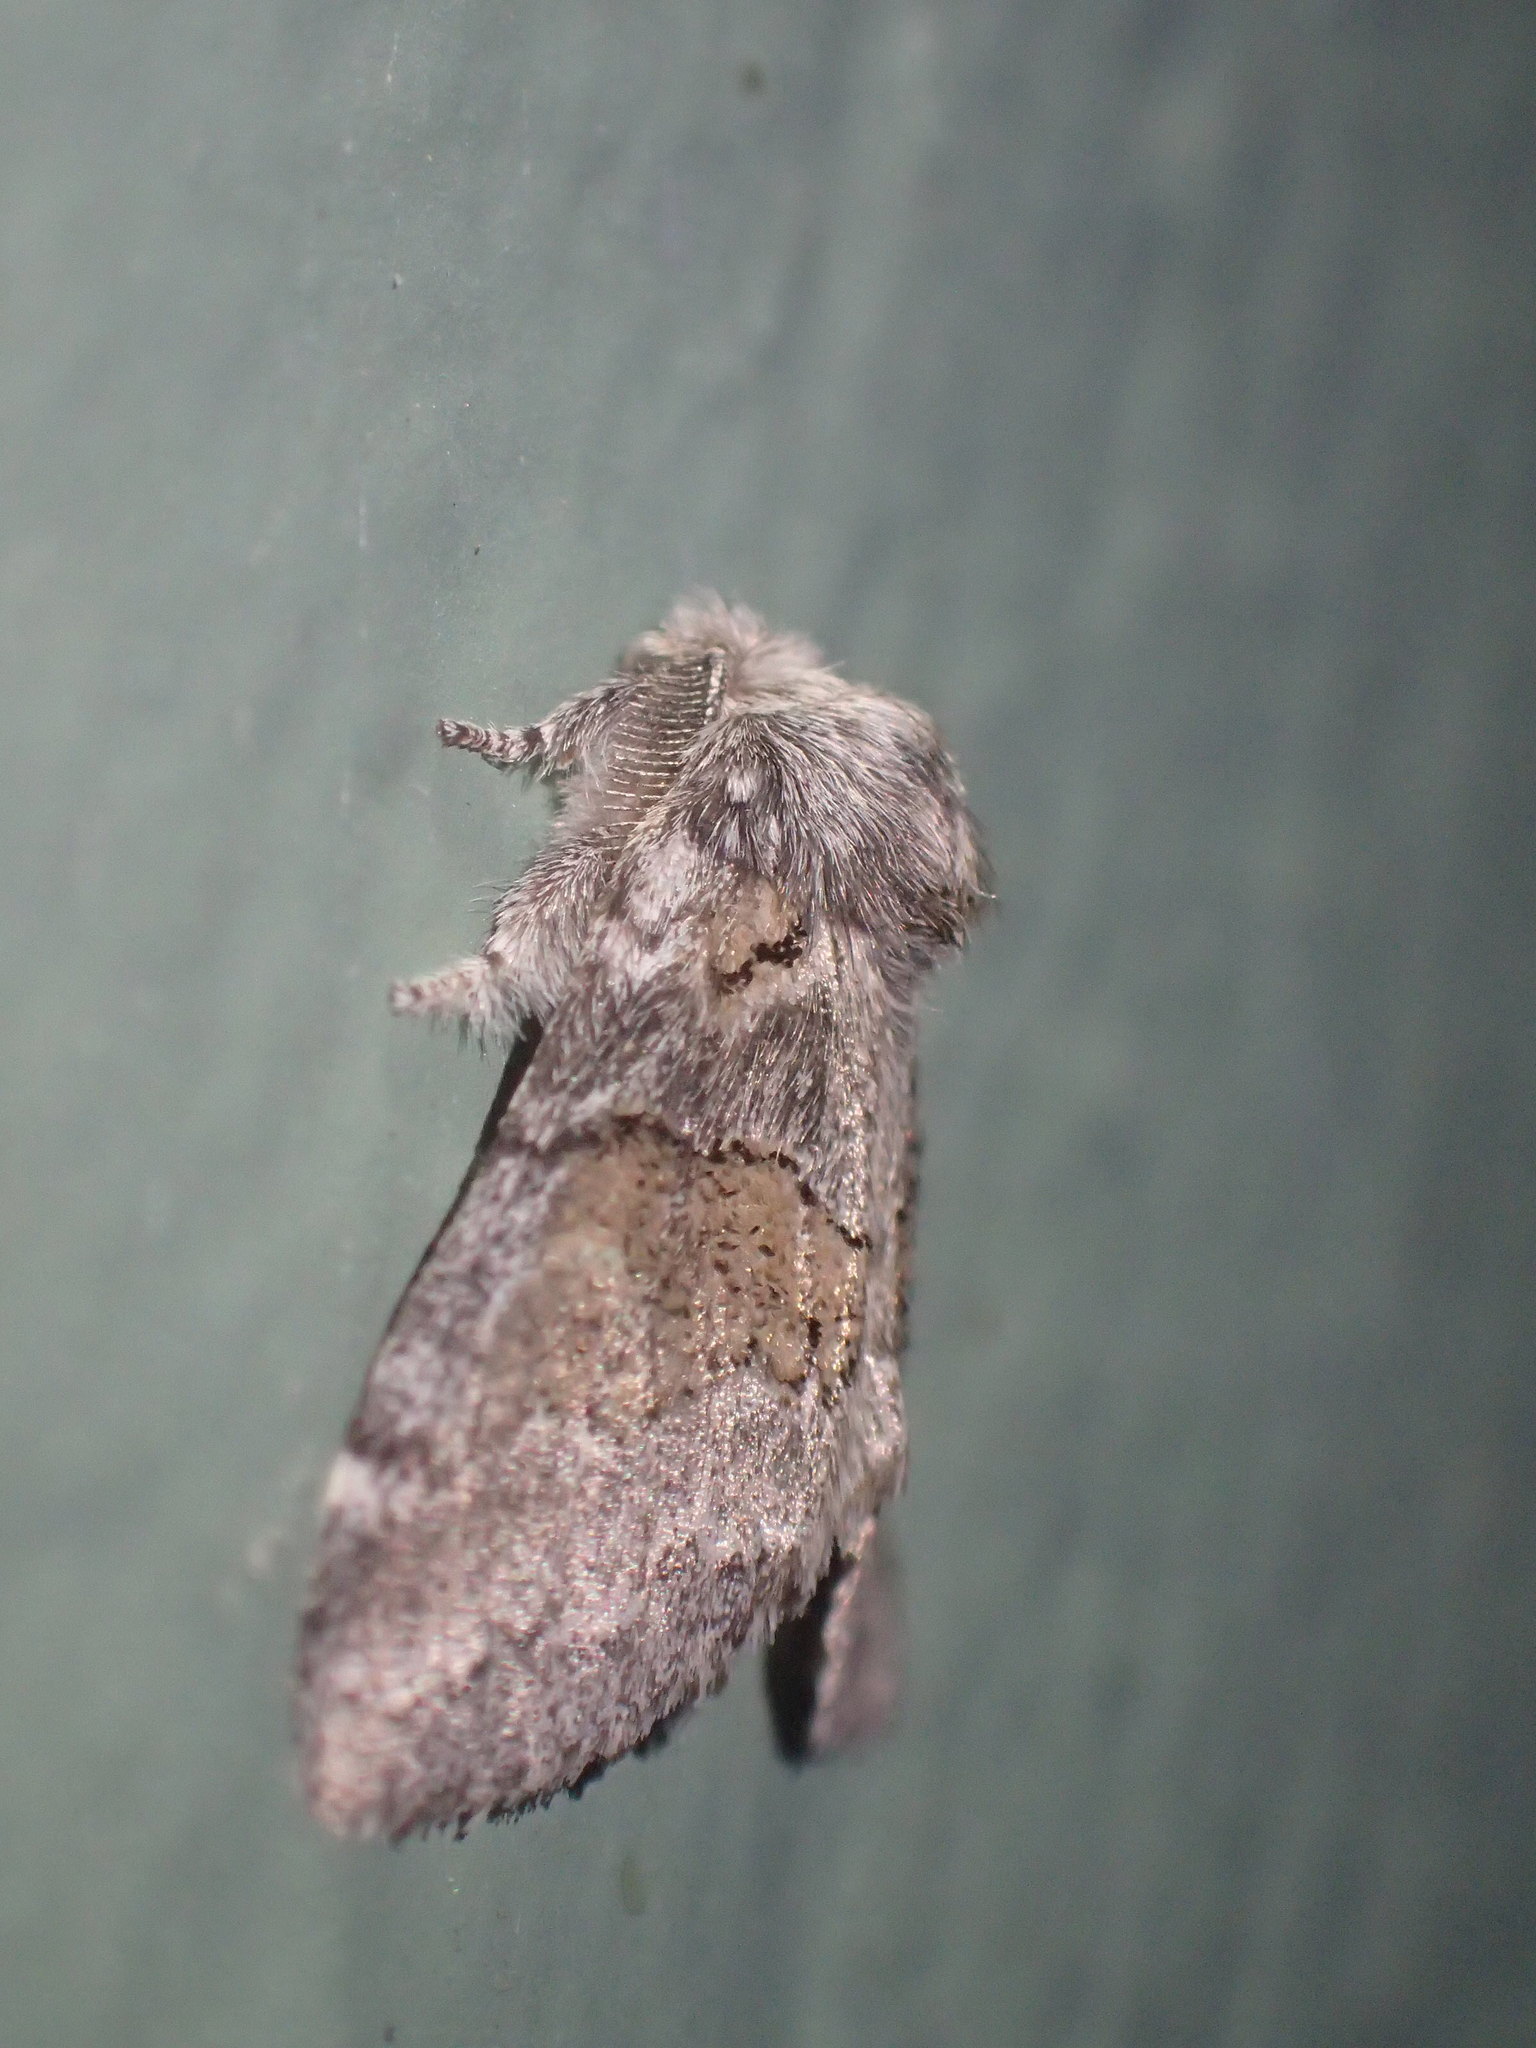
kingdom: Animalia
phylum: Arthropoda
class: Insecta
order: Lepidoptera
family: Notodontidae
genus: Gluphisia
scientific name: Gluphisia septentrionis
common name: Common gluphisia
